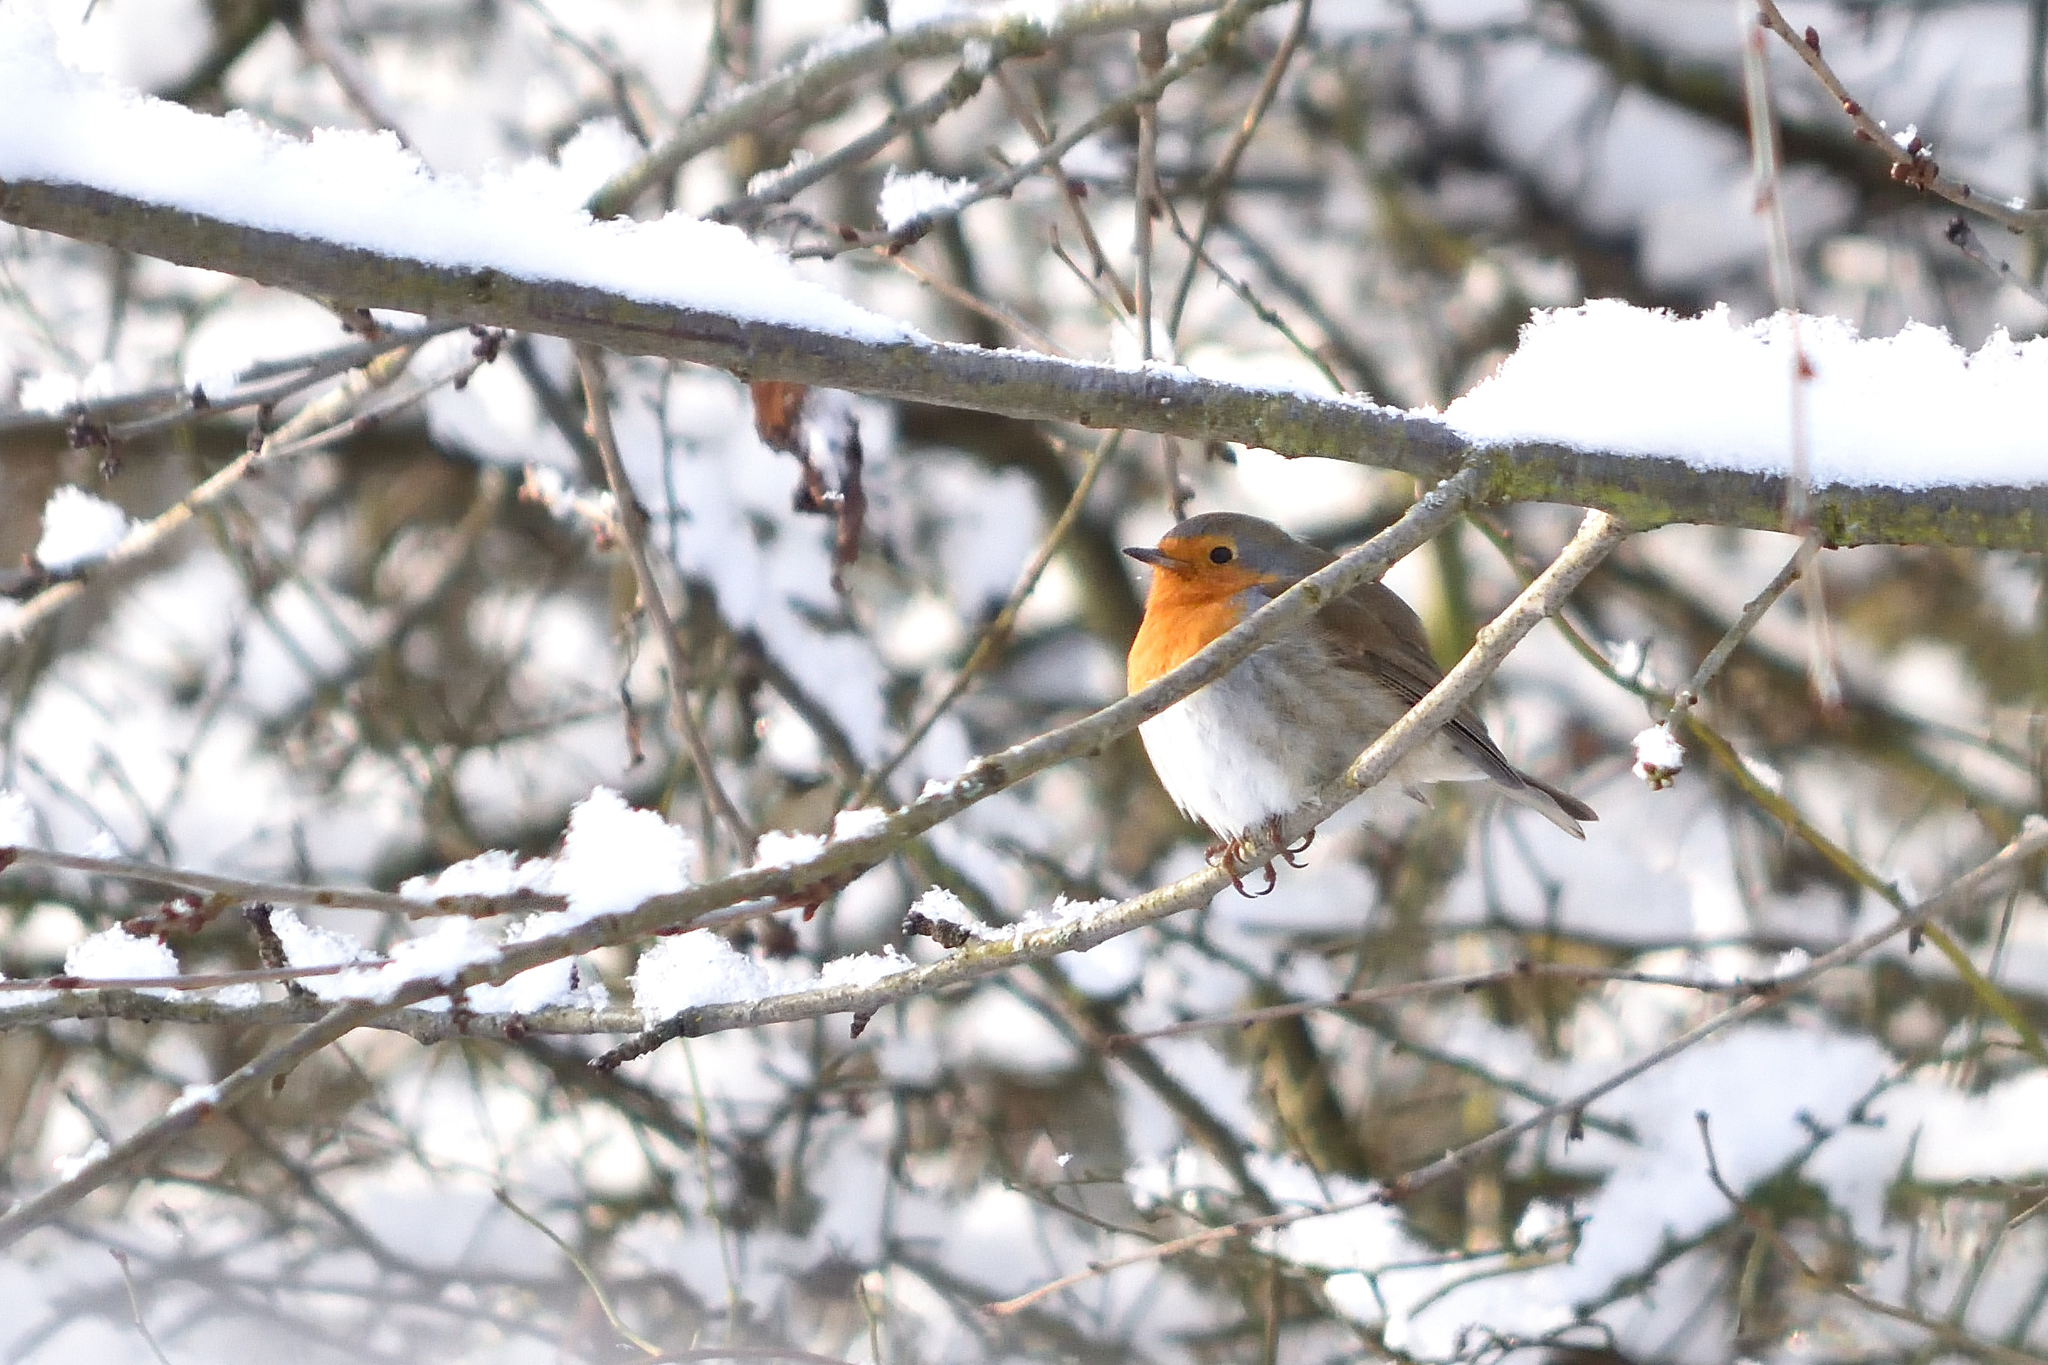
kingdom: Animalia
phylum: Chordata
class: Aves
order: Passeriformes
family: Muscicapidae
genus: Erithacus
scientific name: Erithacus rubecula
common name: European robin
